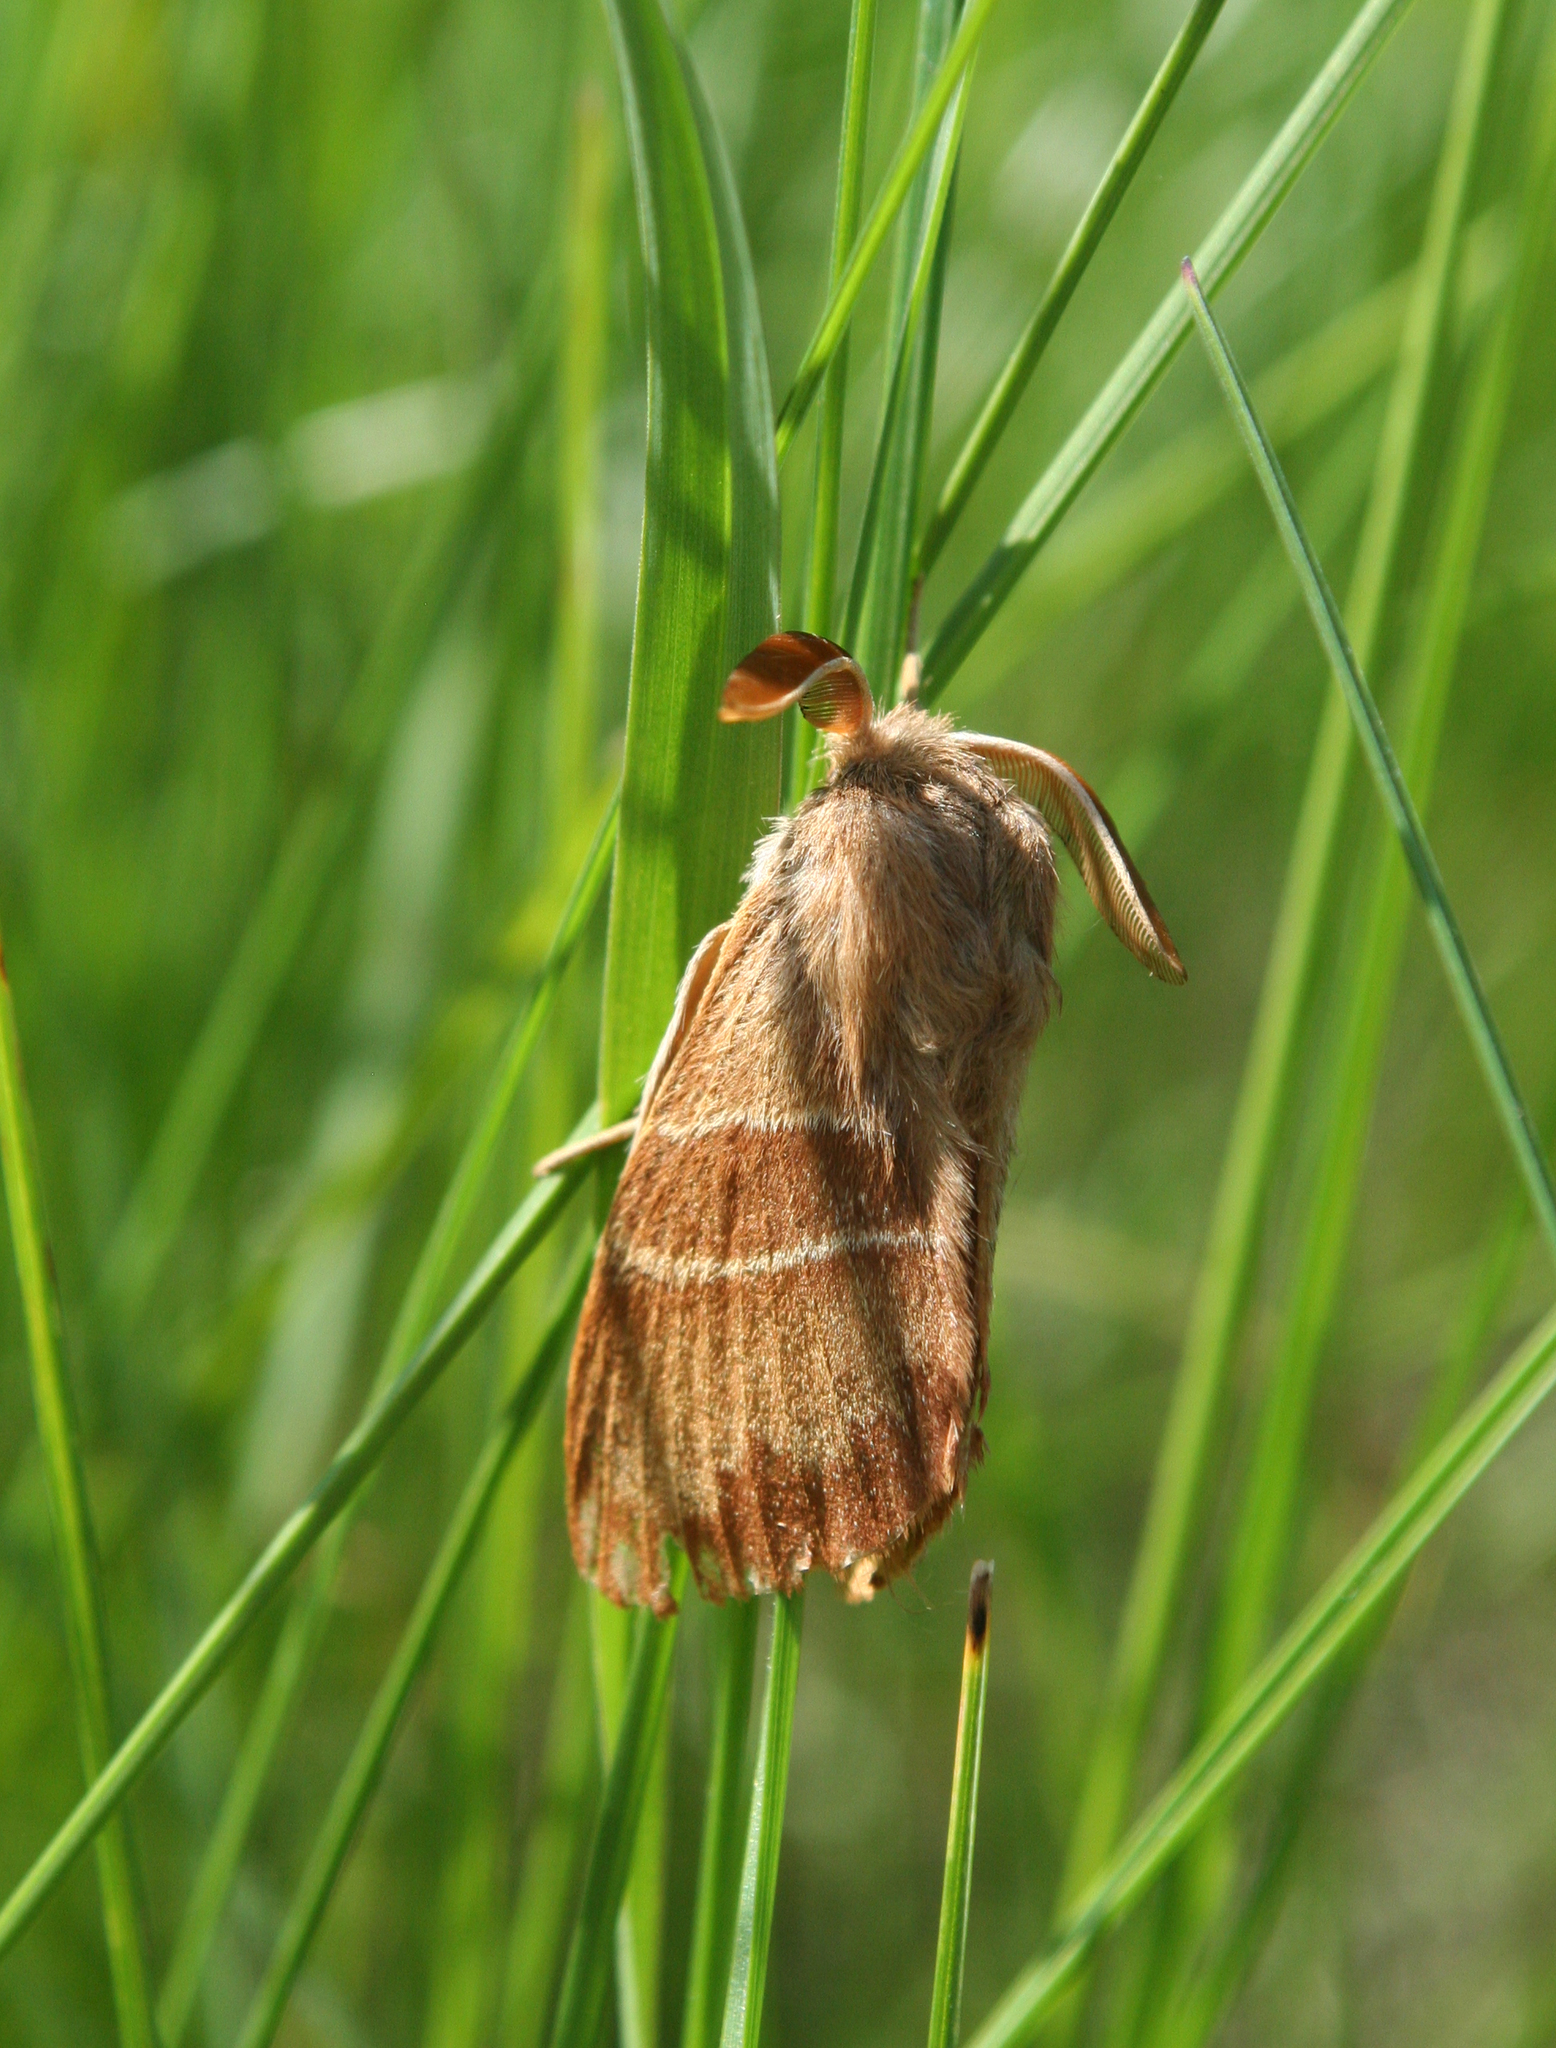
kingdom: Animalia
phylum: Arthropoda
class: Insecta
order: Lepidoptera
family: Lasiocampidae
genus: Macrothylacia
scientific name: Macrothylacia rubi
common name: Fox moth
